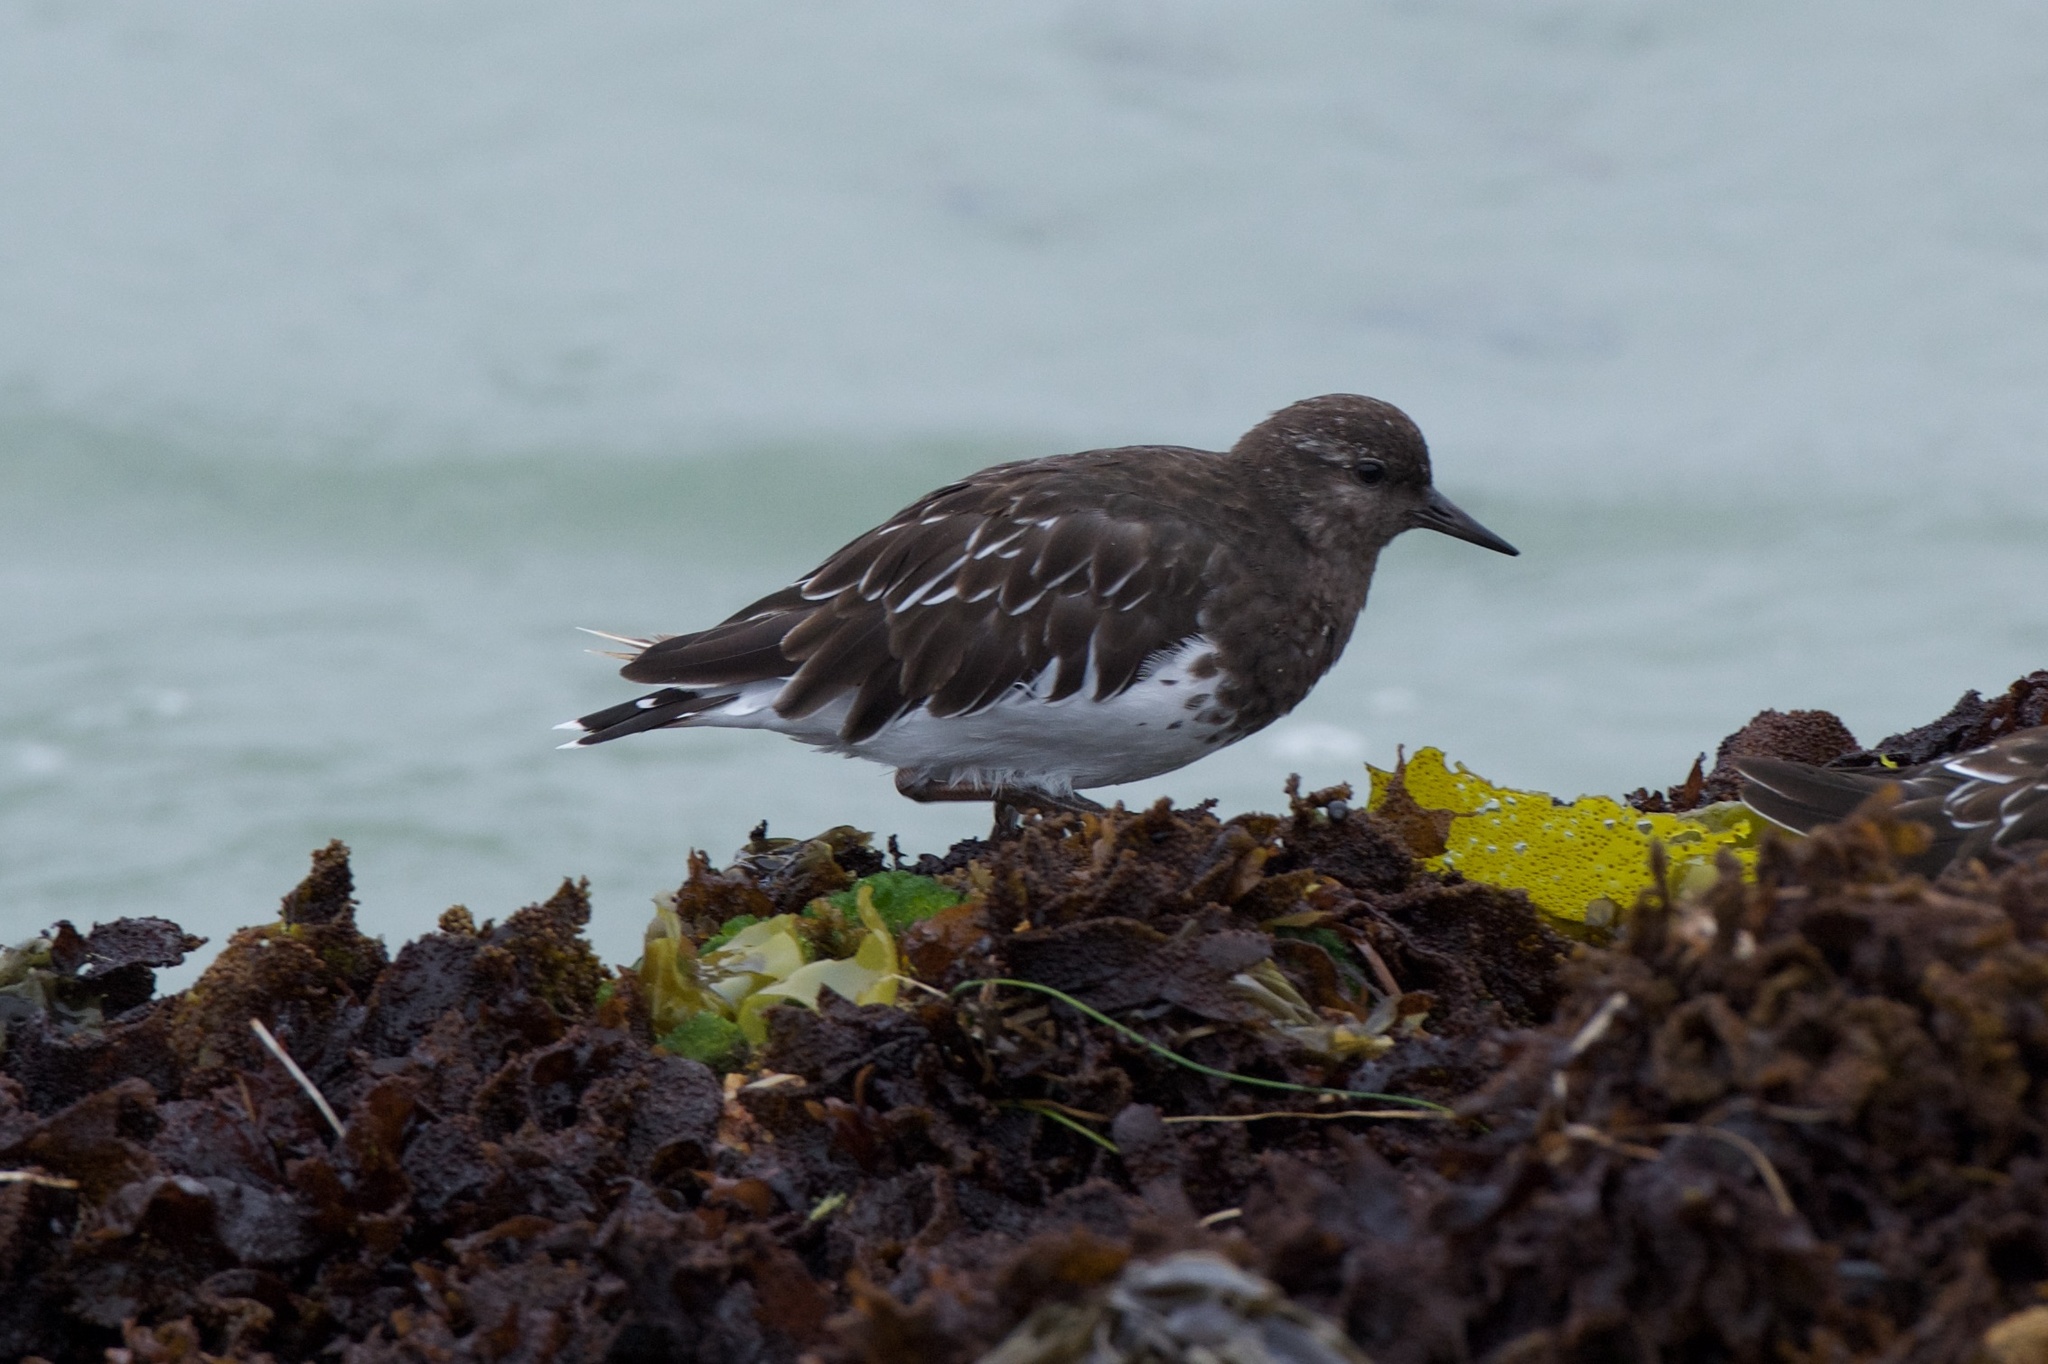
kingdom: Animalia
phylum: Chordata
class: Aves
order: Charadriiformes
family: Scolopacidae
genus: Arenaria
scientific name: Arenaria melanocephala
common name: Black turnstone
